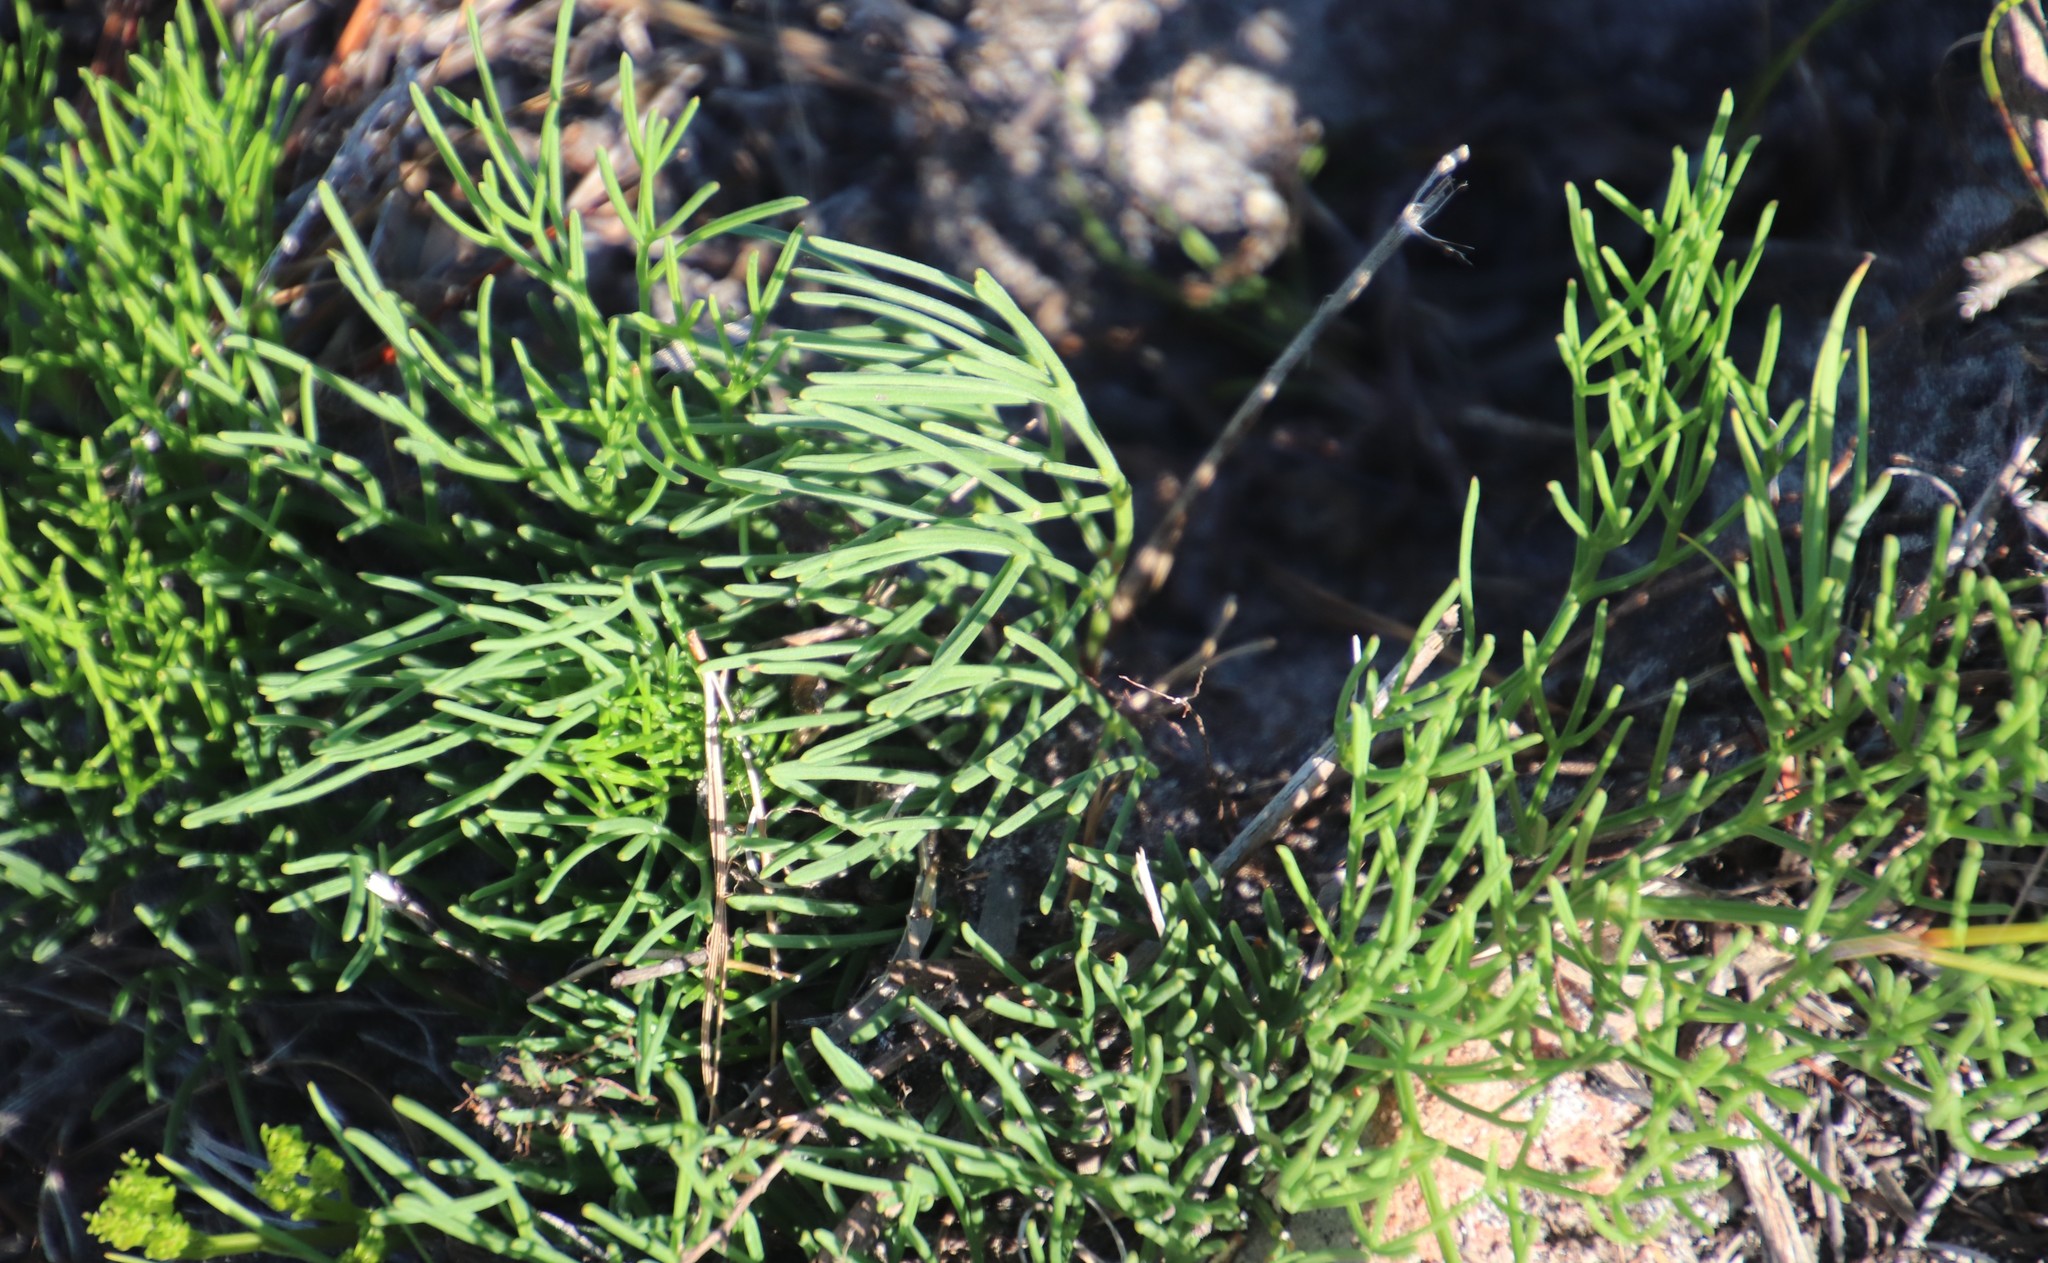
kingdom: Plantae
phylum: Tracheophyta
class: Magnoliopsida
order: Apiales
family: Apiaceae
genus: Nanobubon
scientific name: Nanobubon strictum
